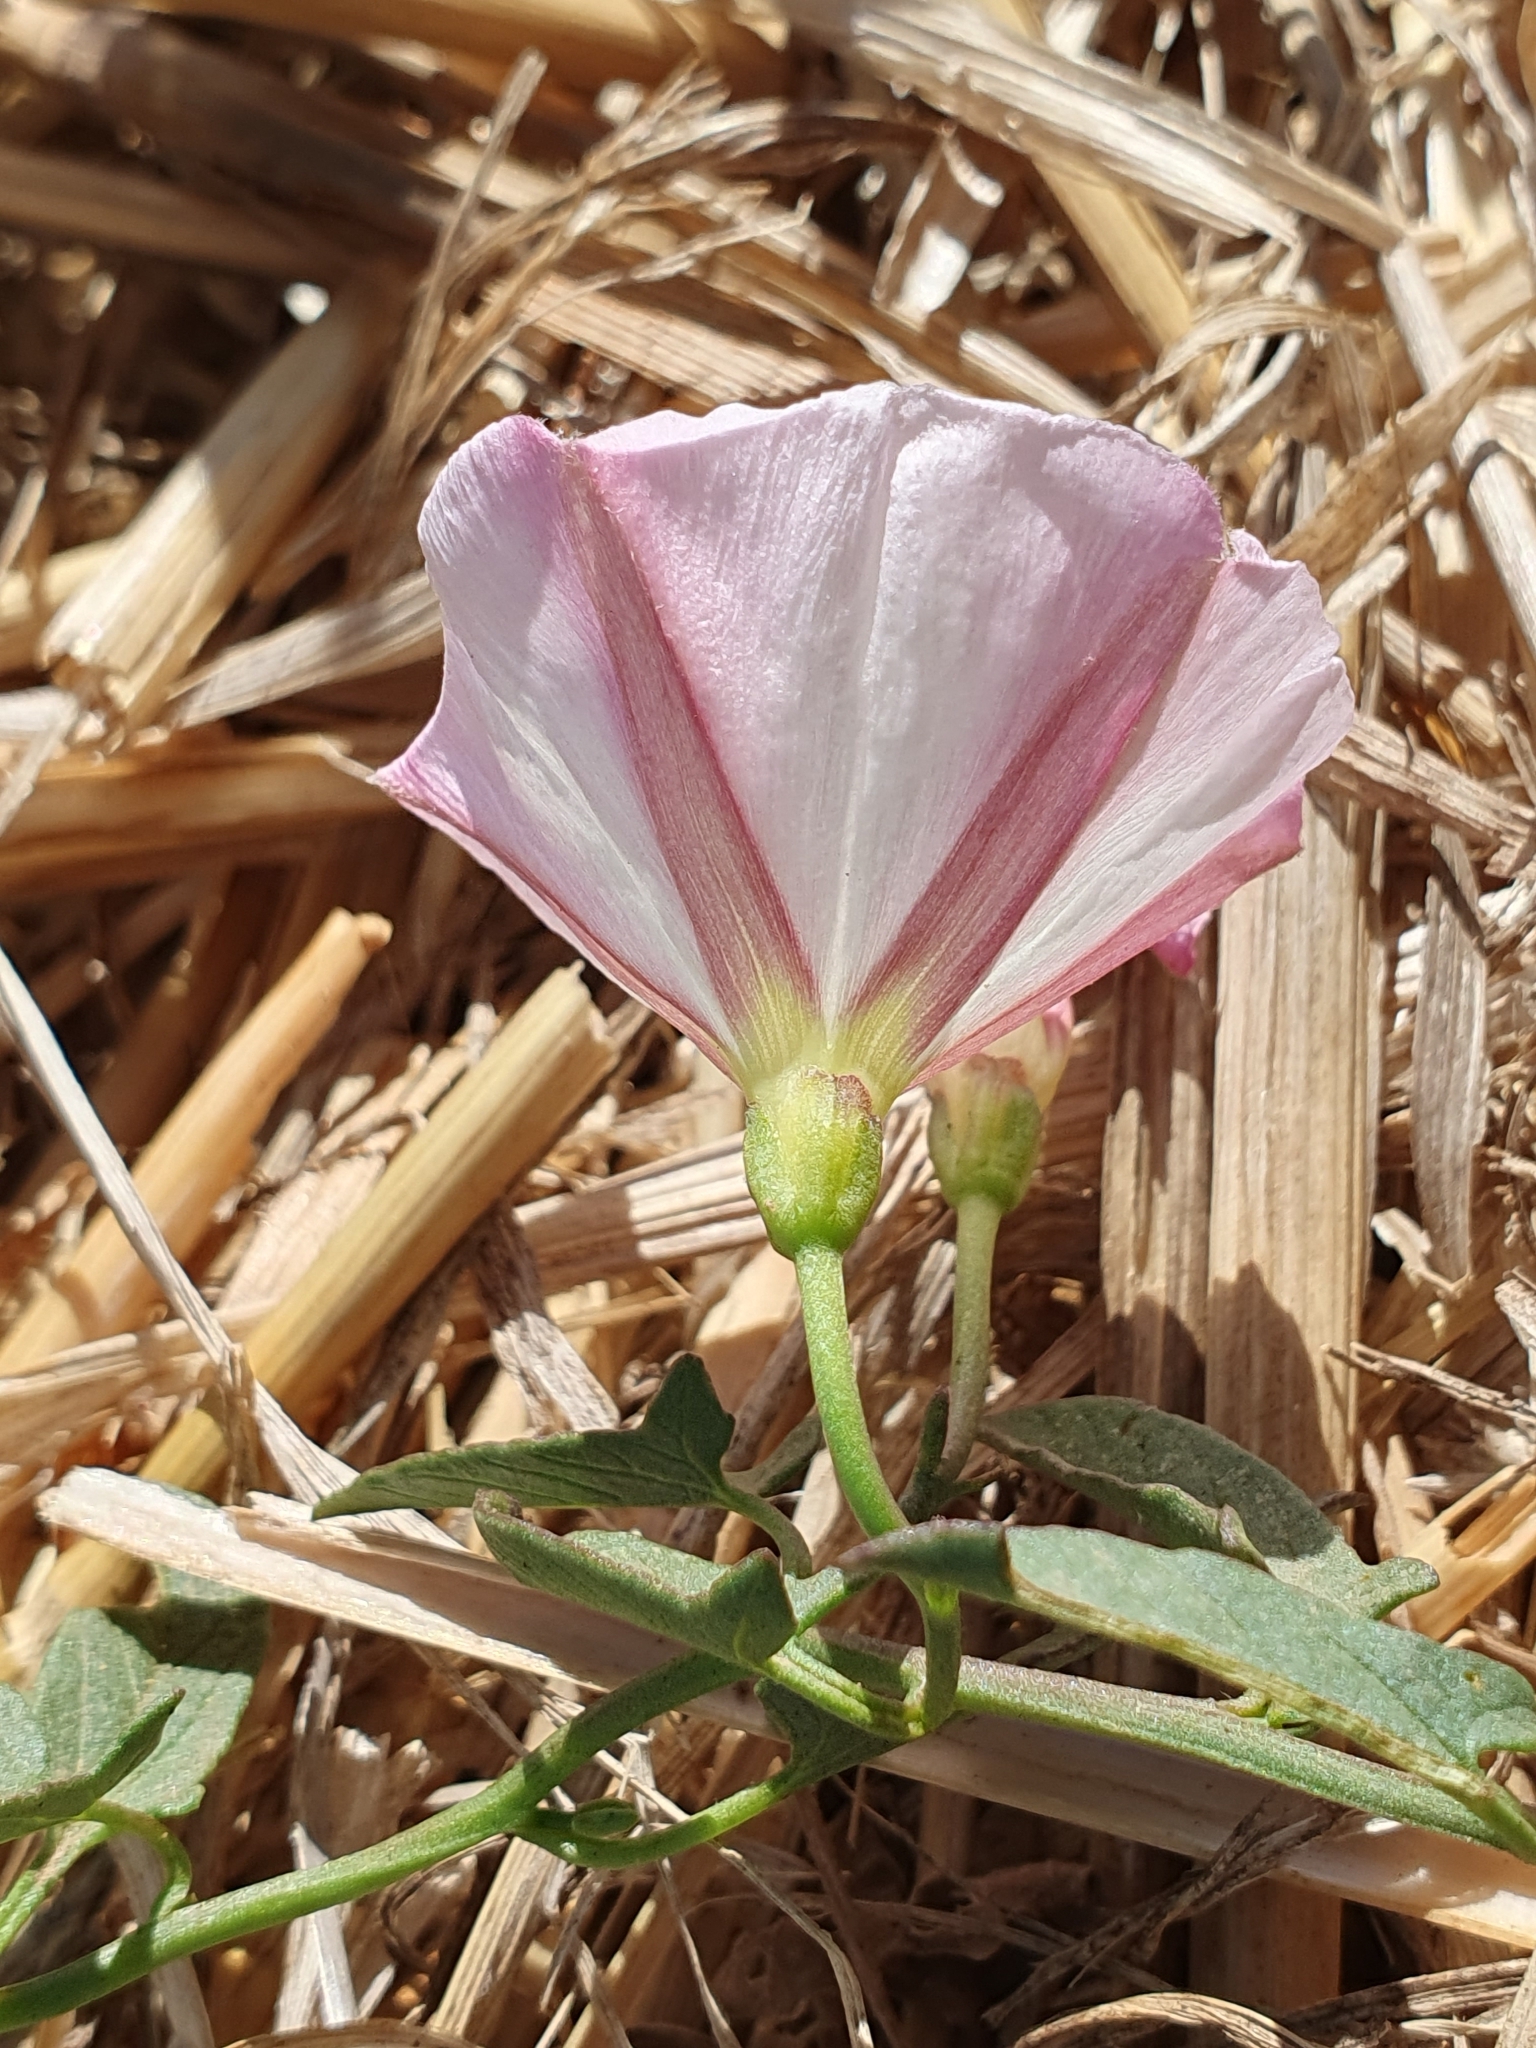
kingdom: Plantae
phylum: Tracheophyta
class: Magnoliopsida
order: Solanales
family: Convolvulaceae
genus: Convolvulus
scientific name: Convolvulus arvensis
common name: Field bindweed
